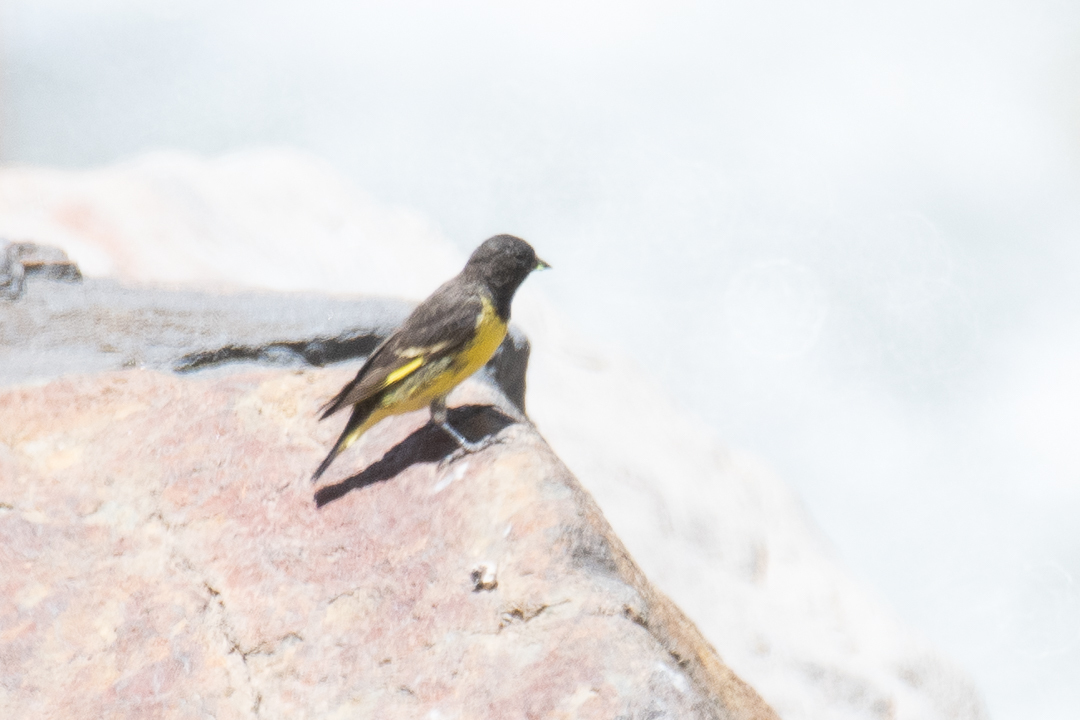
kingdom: Animalia
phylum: Chordata
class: Aves
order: Passeriformes
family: Fringillidae
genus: Spinus
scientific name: Spinus uropygialis
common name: Yellow-rumped siskin
